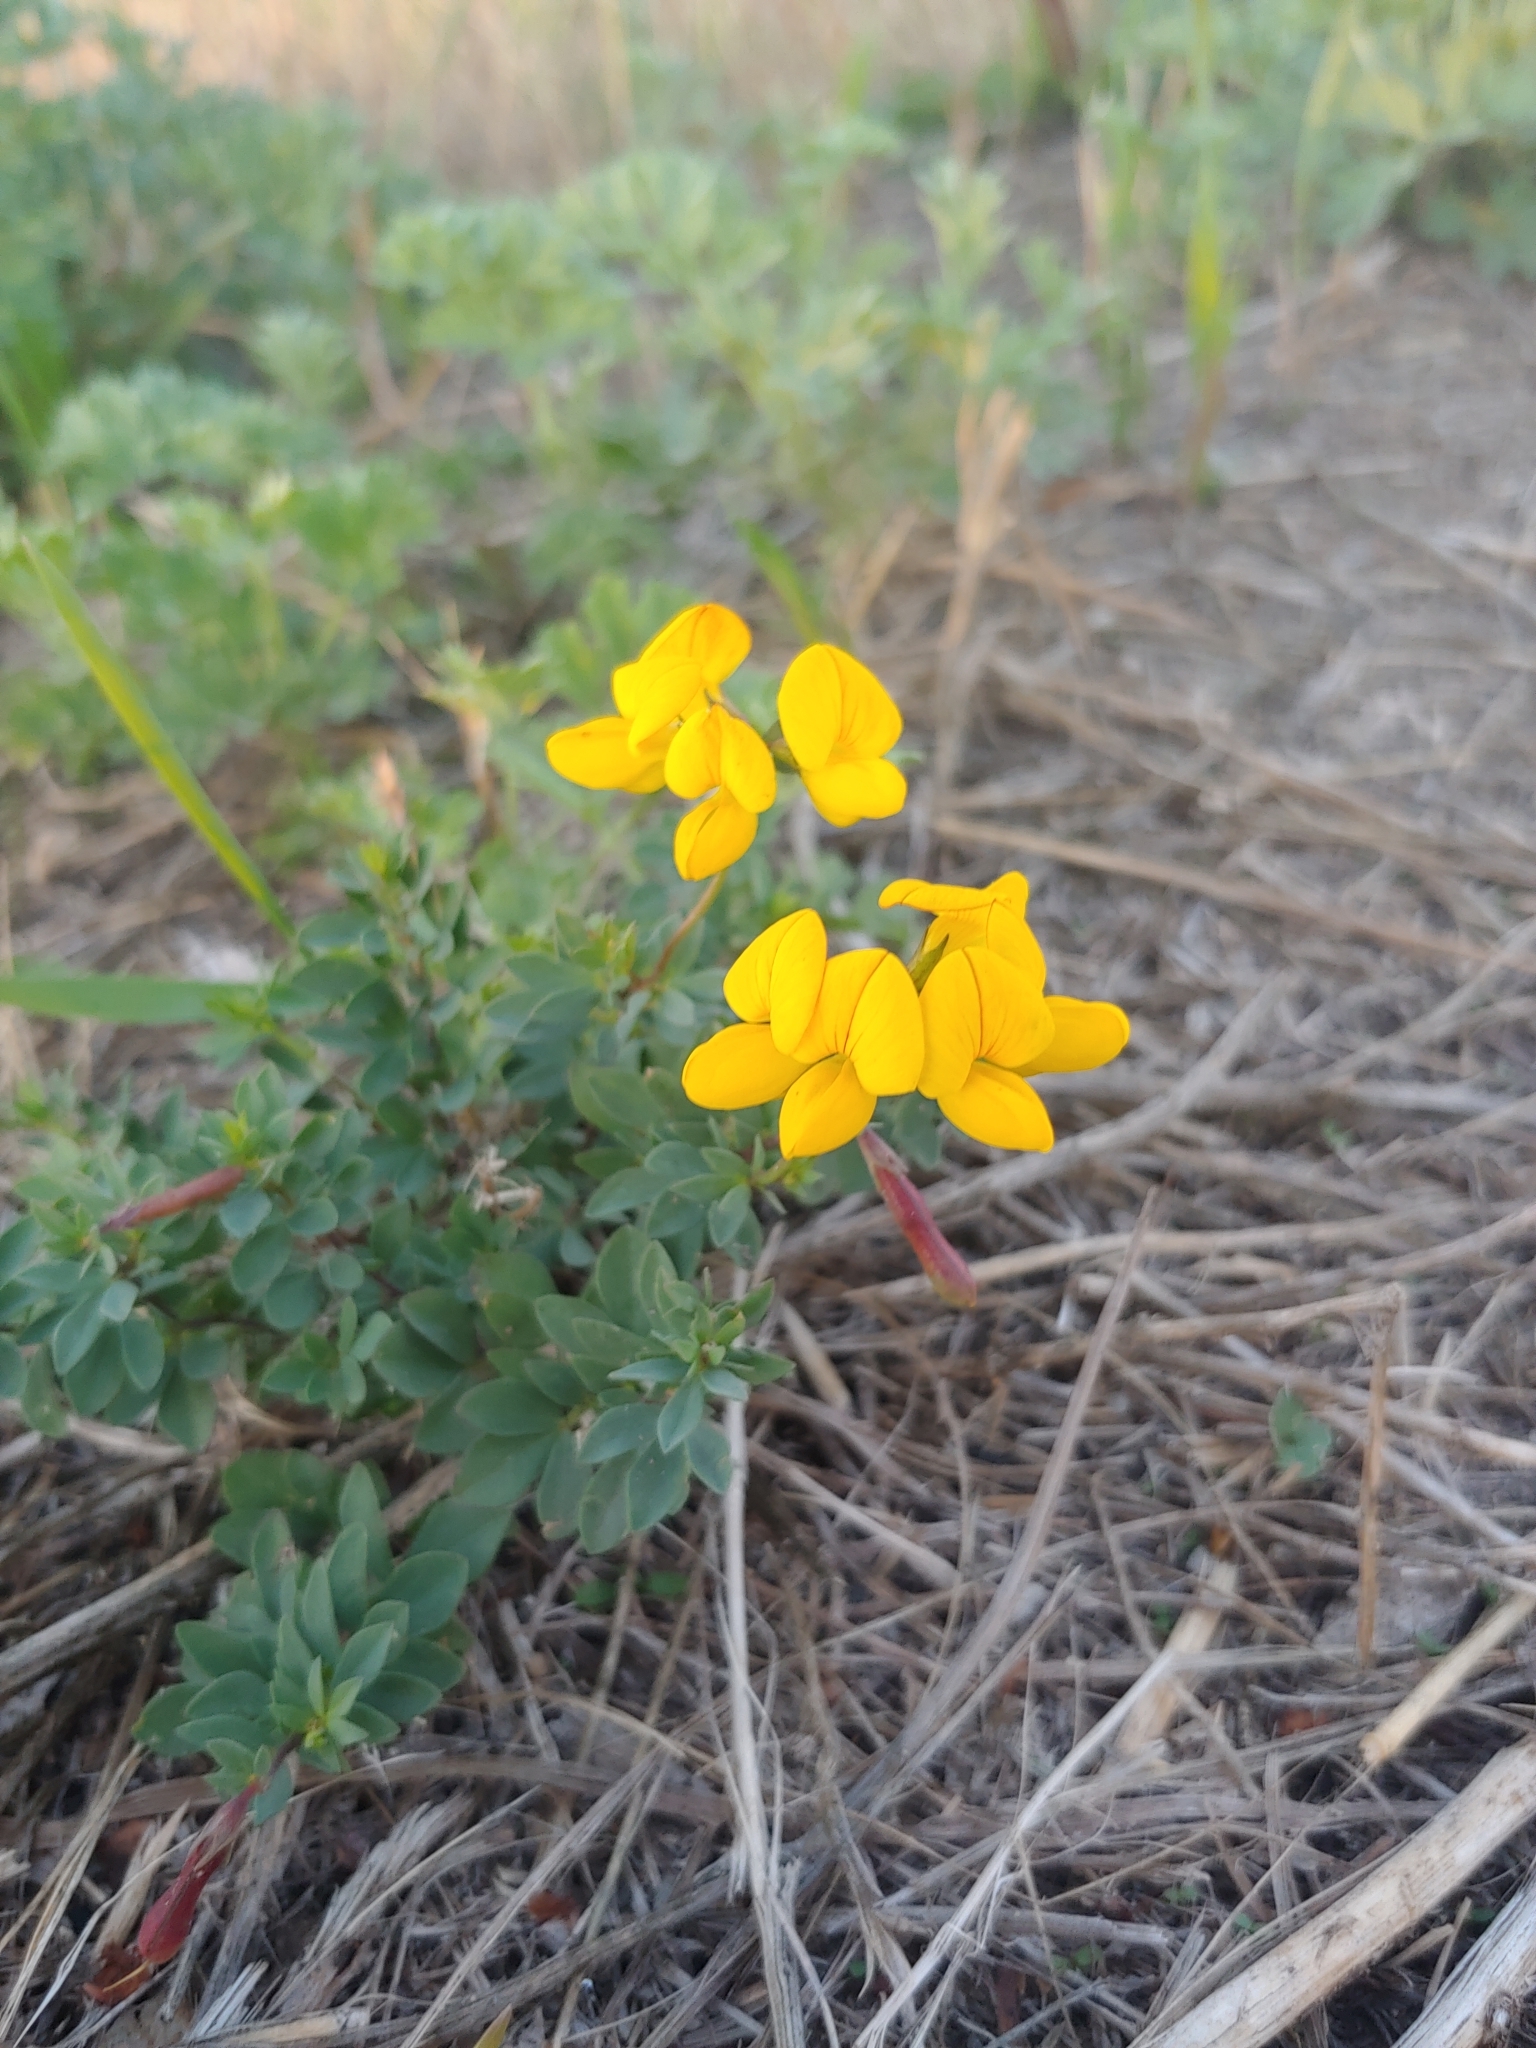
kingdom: Plantae
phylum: Tracheophyta
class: Magnoliopsida
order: Fabales
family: Fabaceae
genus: Lotus
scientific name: Lotus corniculatus
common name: Common bird's-foot-trefoil
